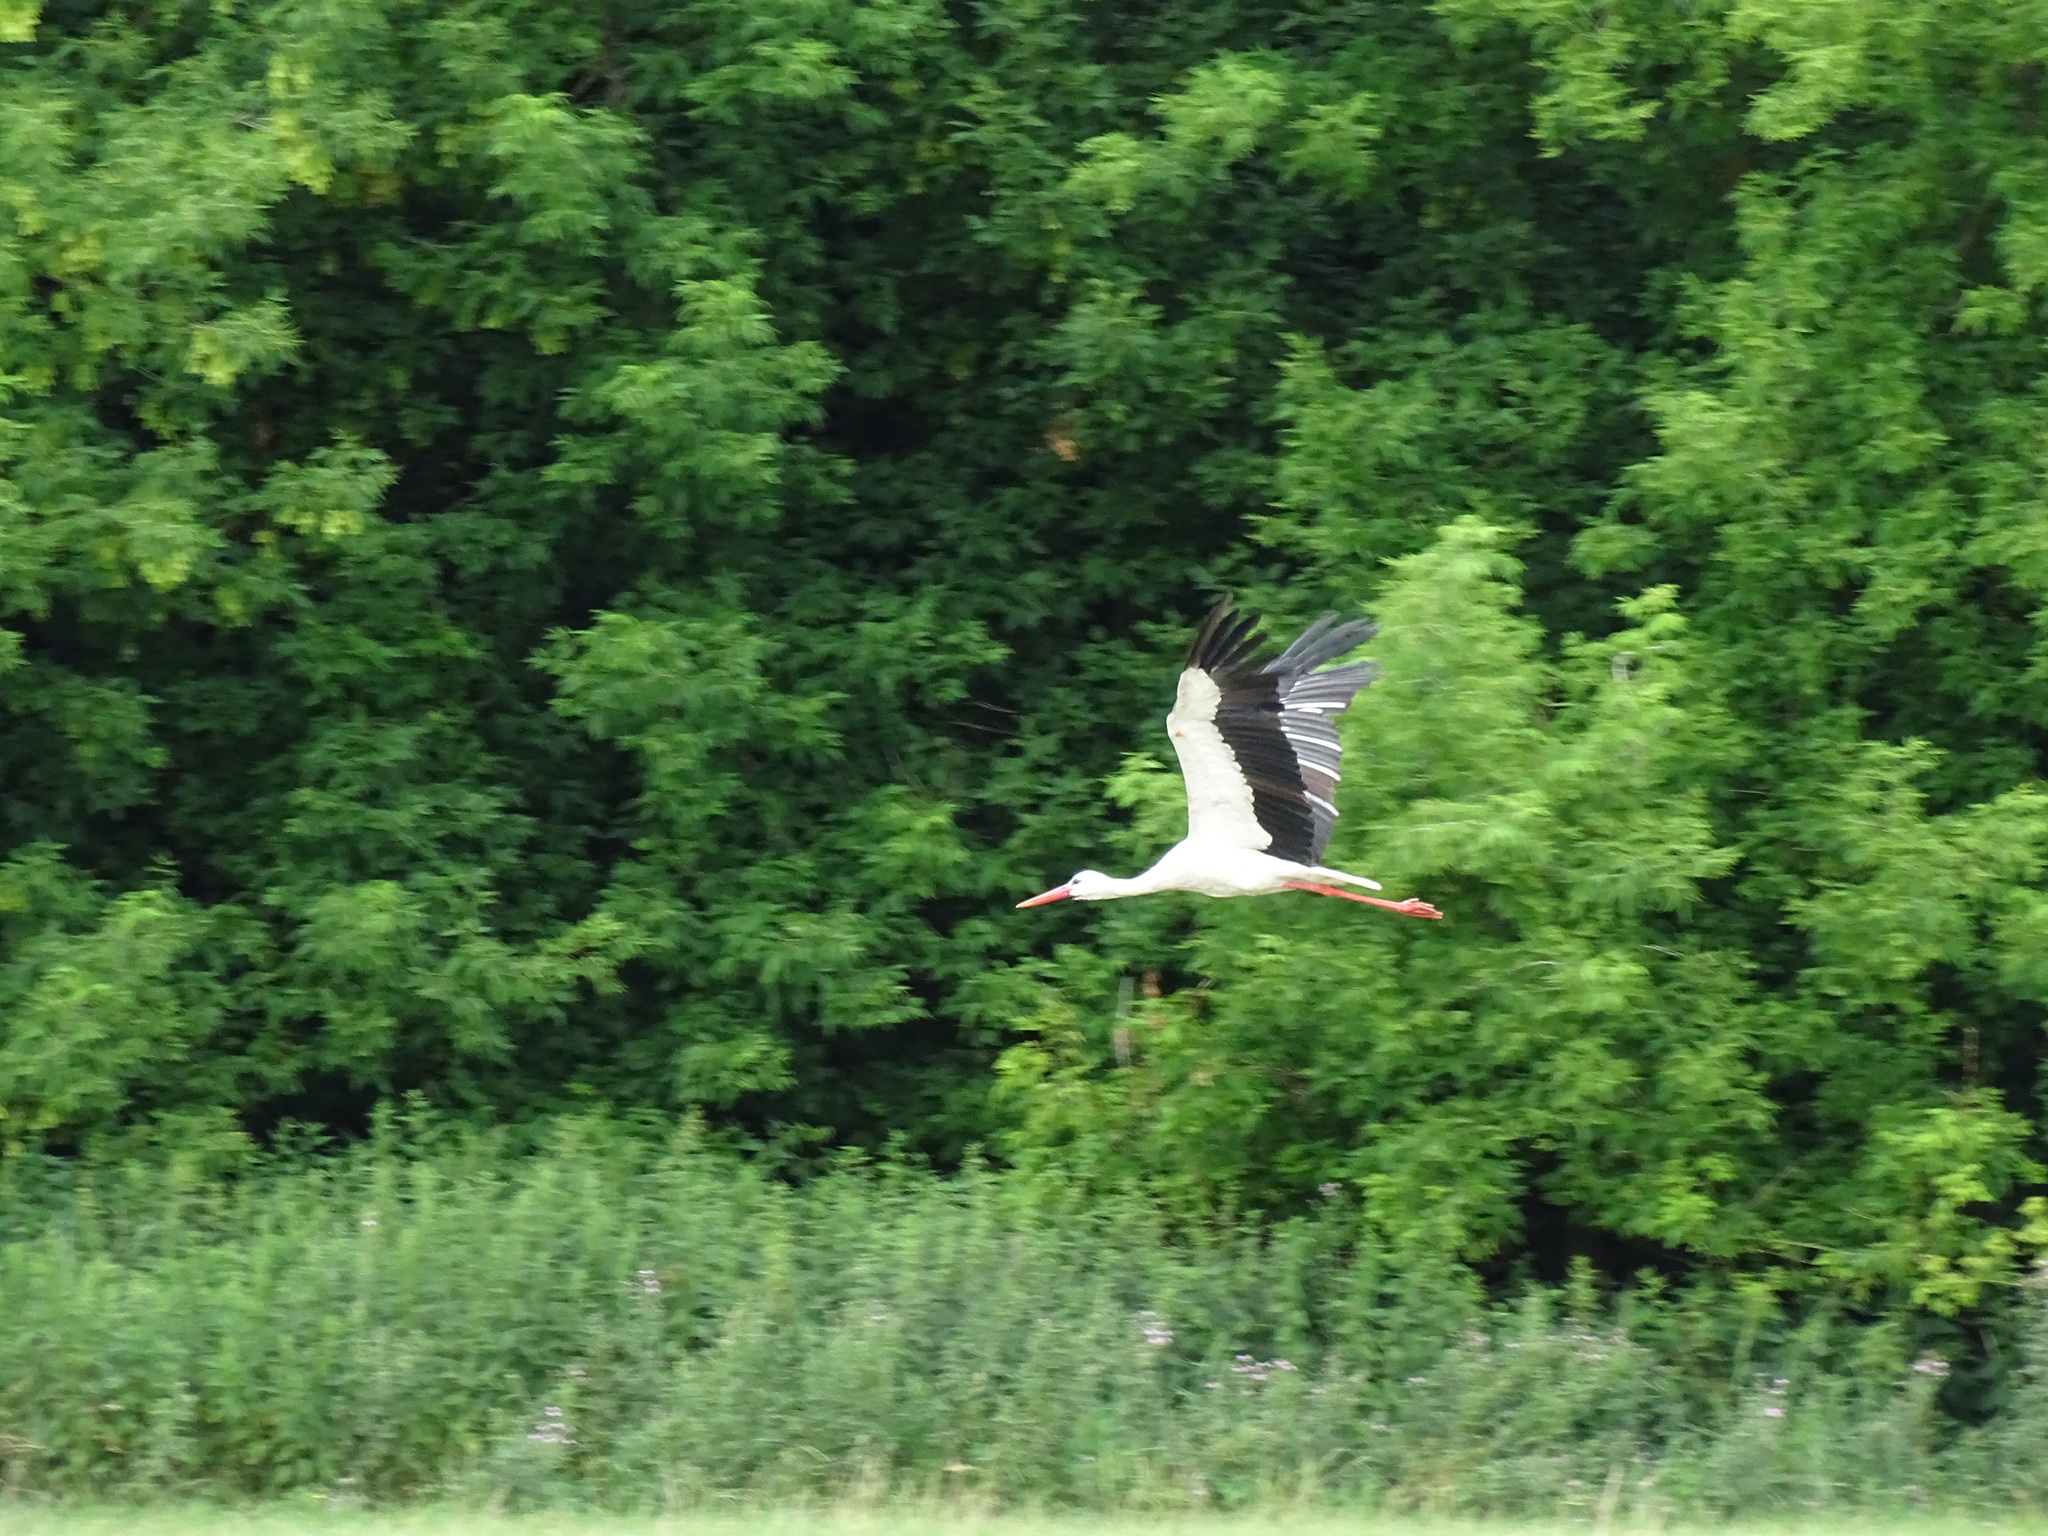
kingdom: Animalia
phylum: Chordata
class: Aves
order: Ciconiiformes
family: Ciconiidae
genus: Ciconia
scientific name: Ciconia ciconia
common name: White stork
